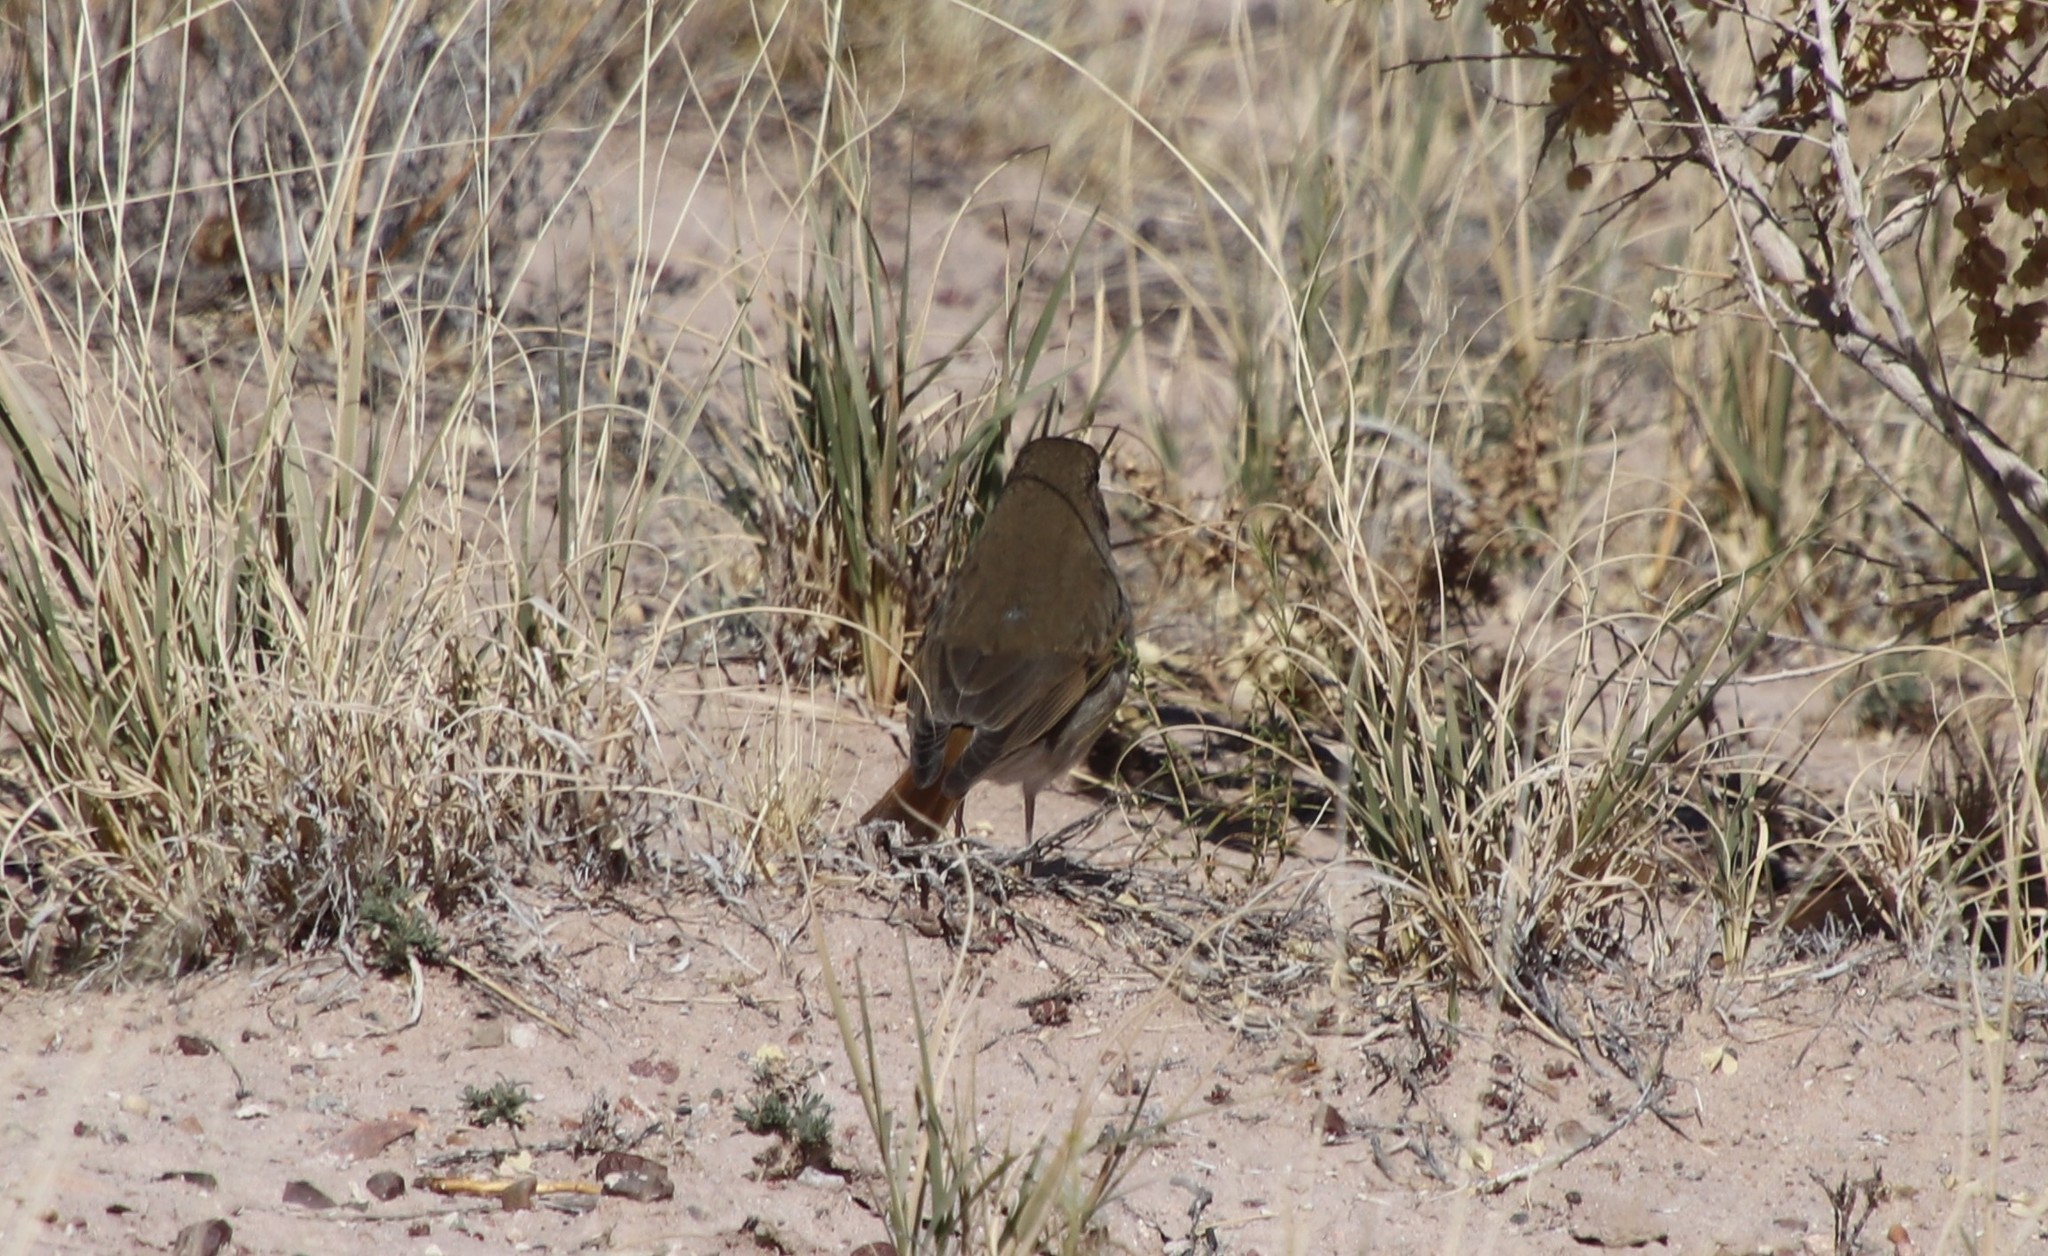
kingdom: Animalia
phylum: Chordata
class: Aves
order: Passeriformes
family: Turdidae
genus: Catharus
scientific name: Catharus guttatus
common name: Hermit thrush
